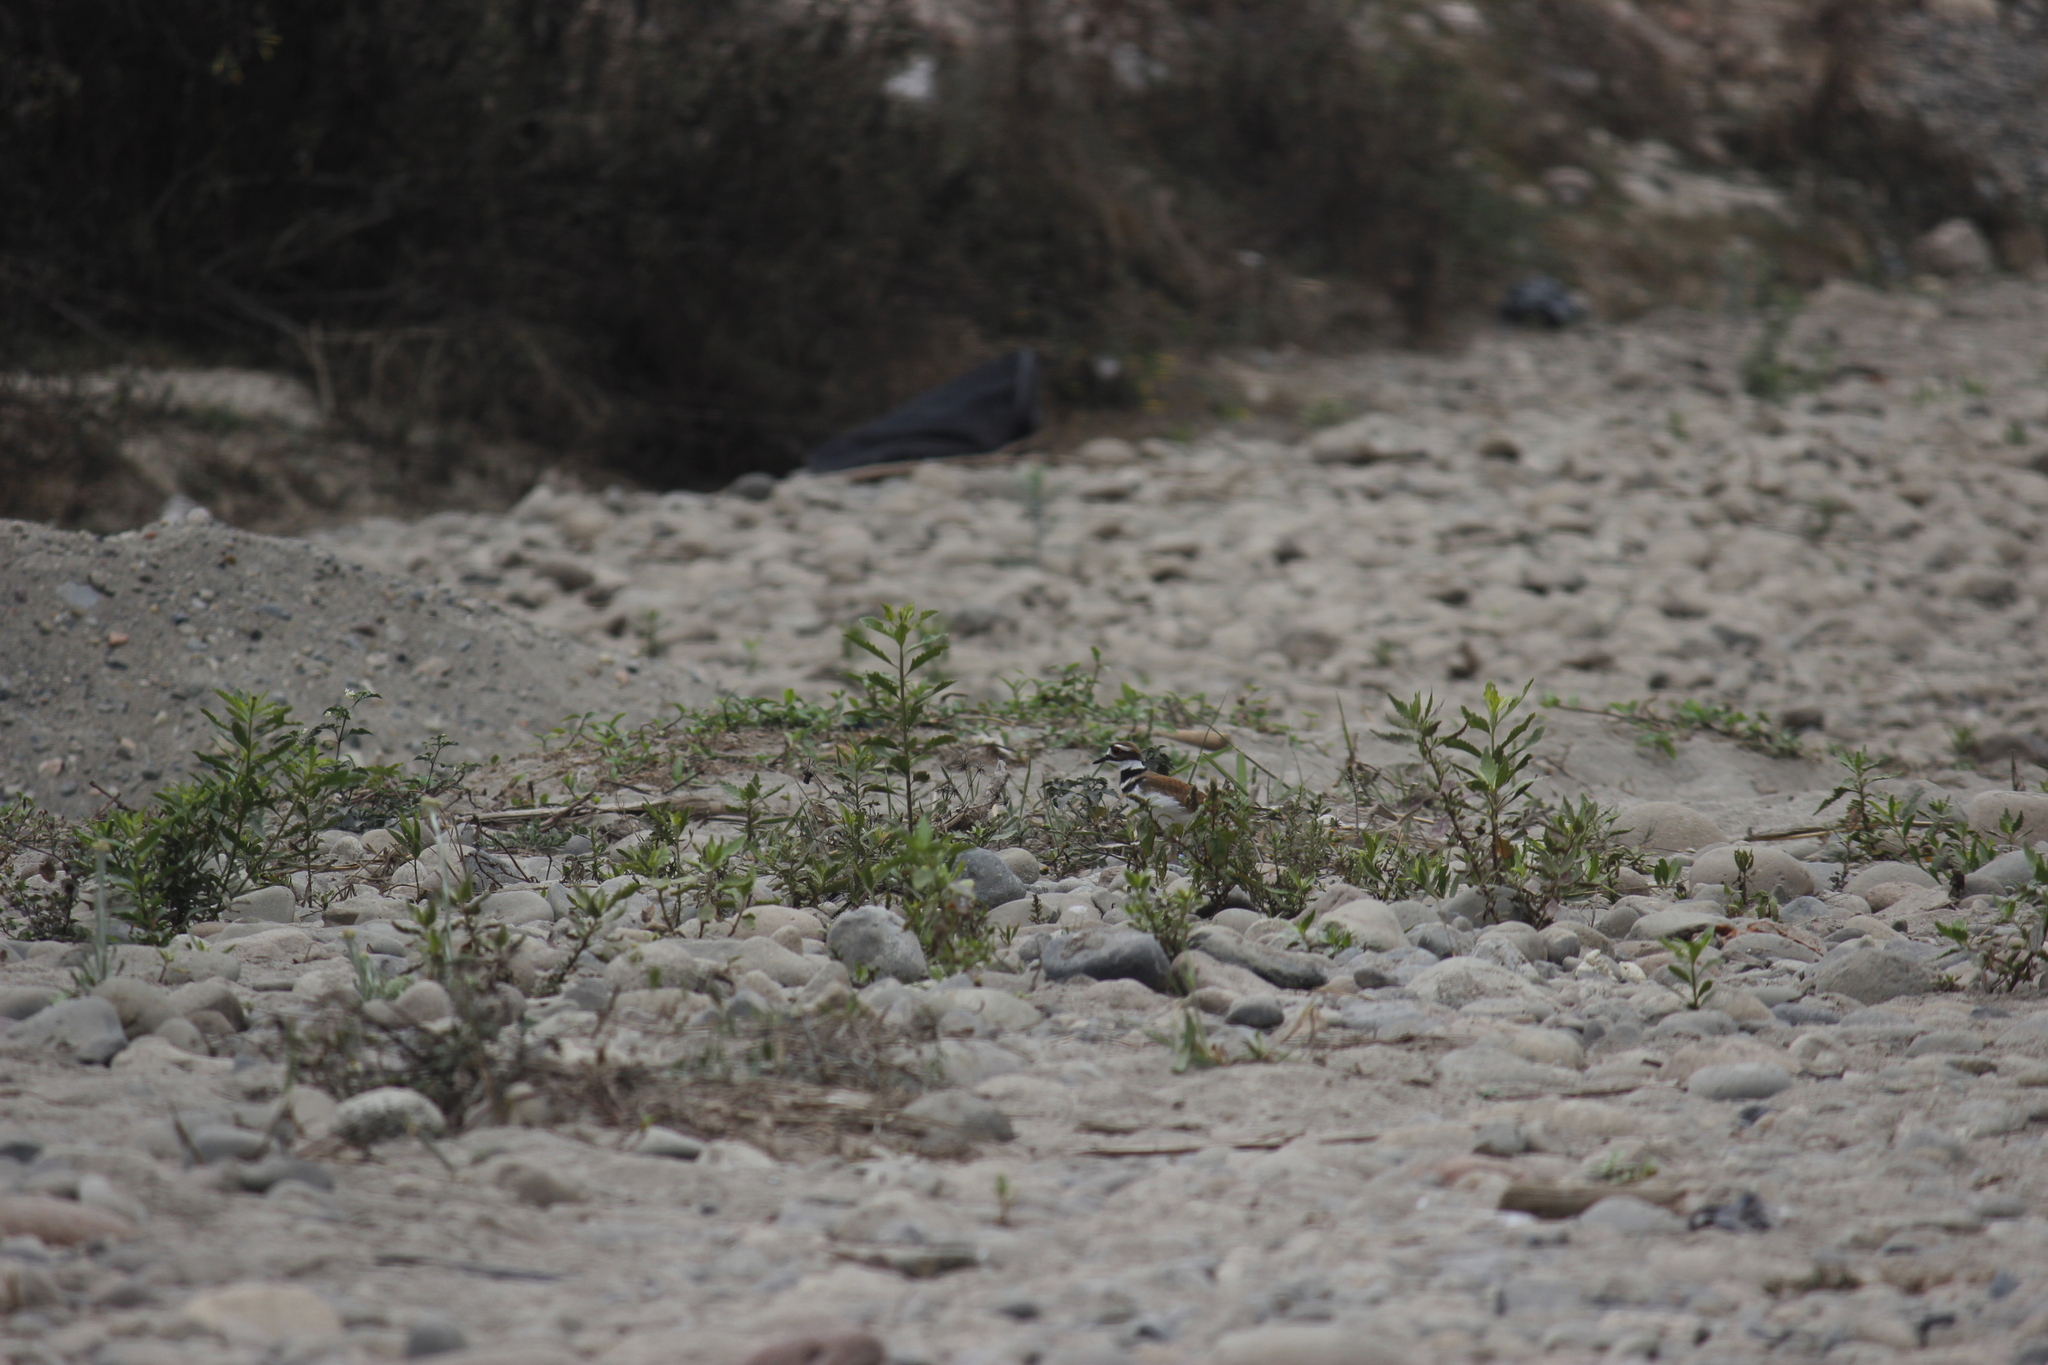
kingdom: Animalia
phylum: Chordata
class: Aves
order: Charadriiformes
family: Charadriidae
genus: Charadrius
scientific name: Charadrius vociferus
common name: Killdeer
